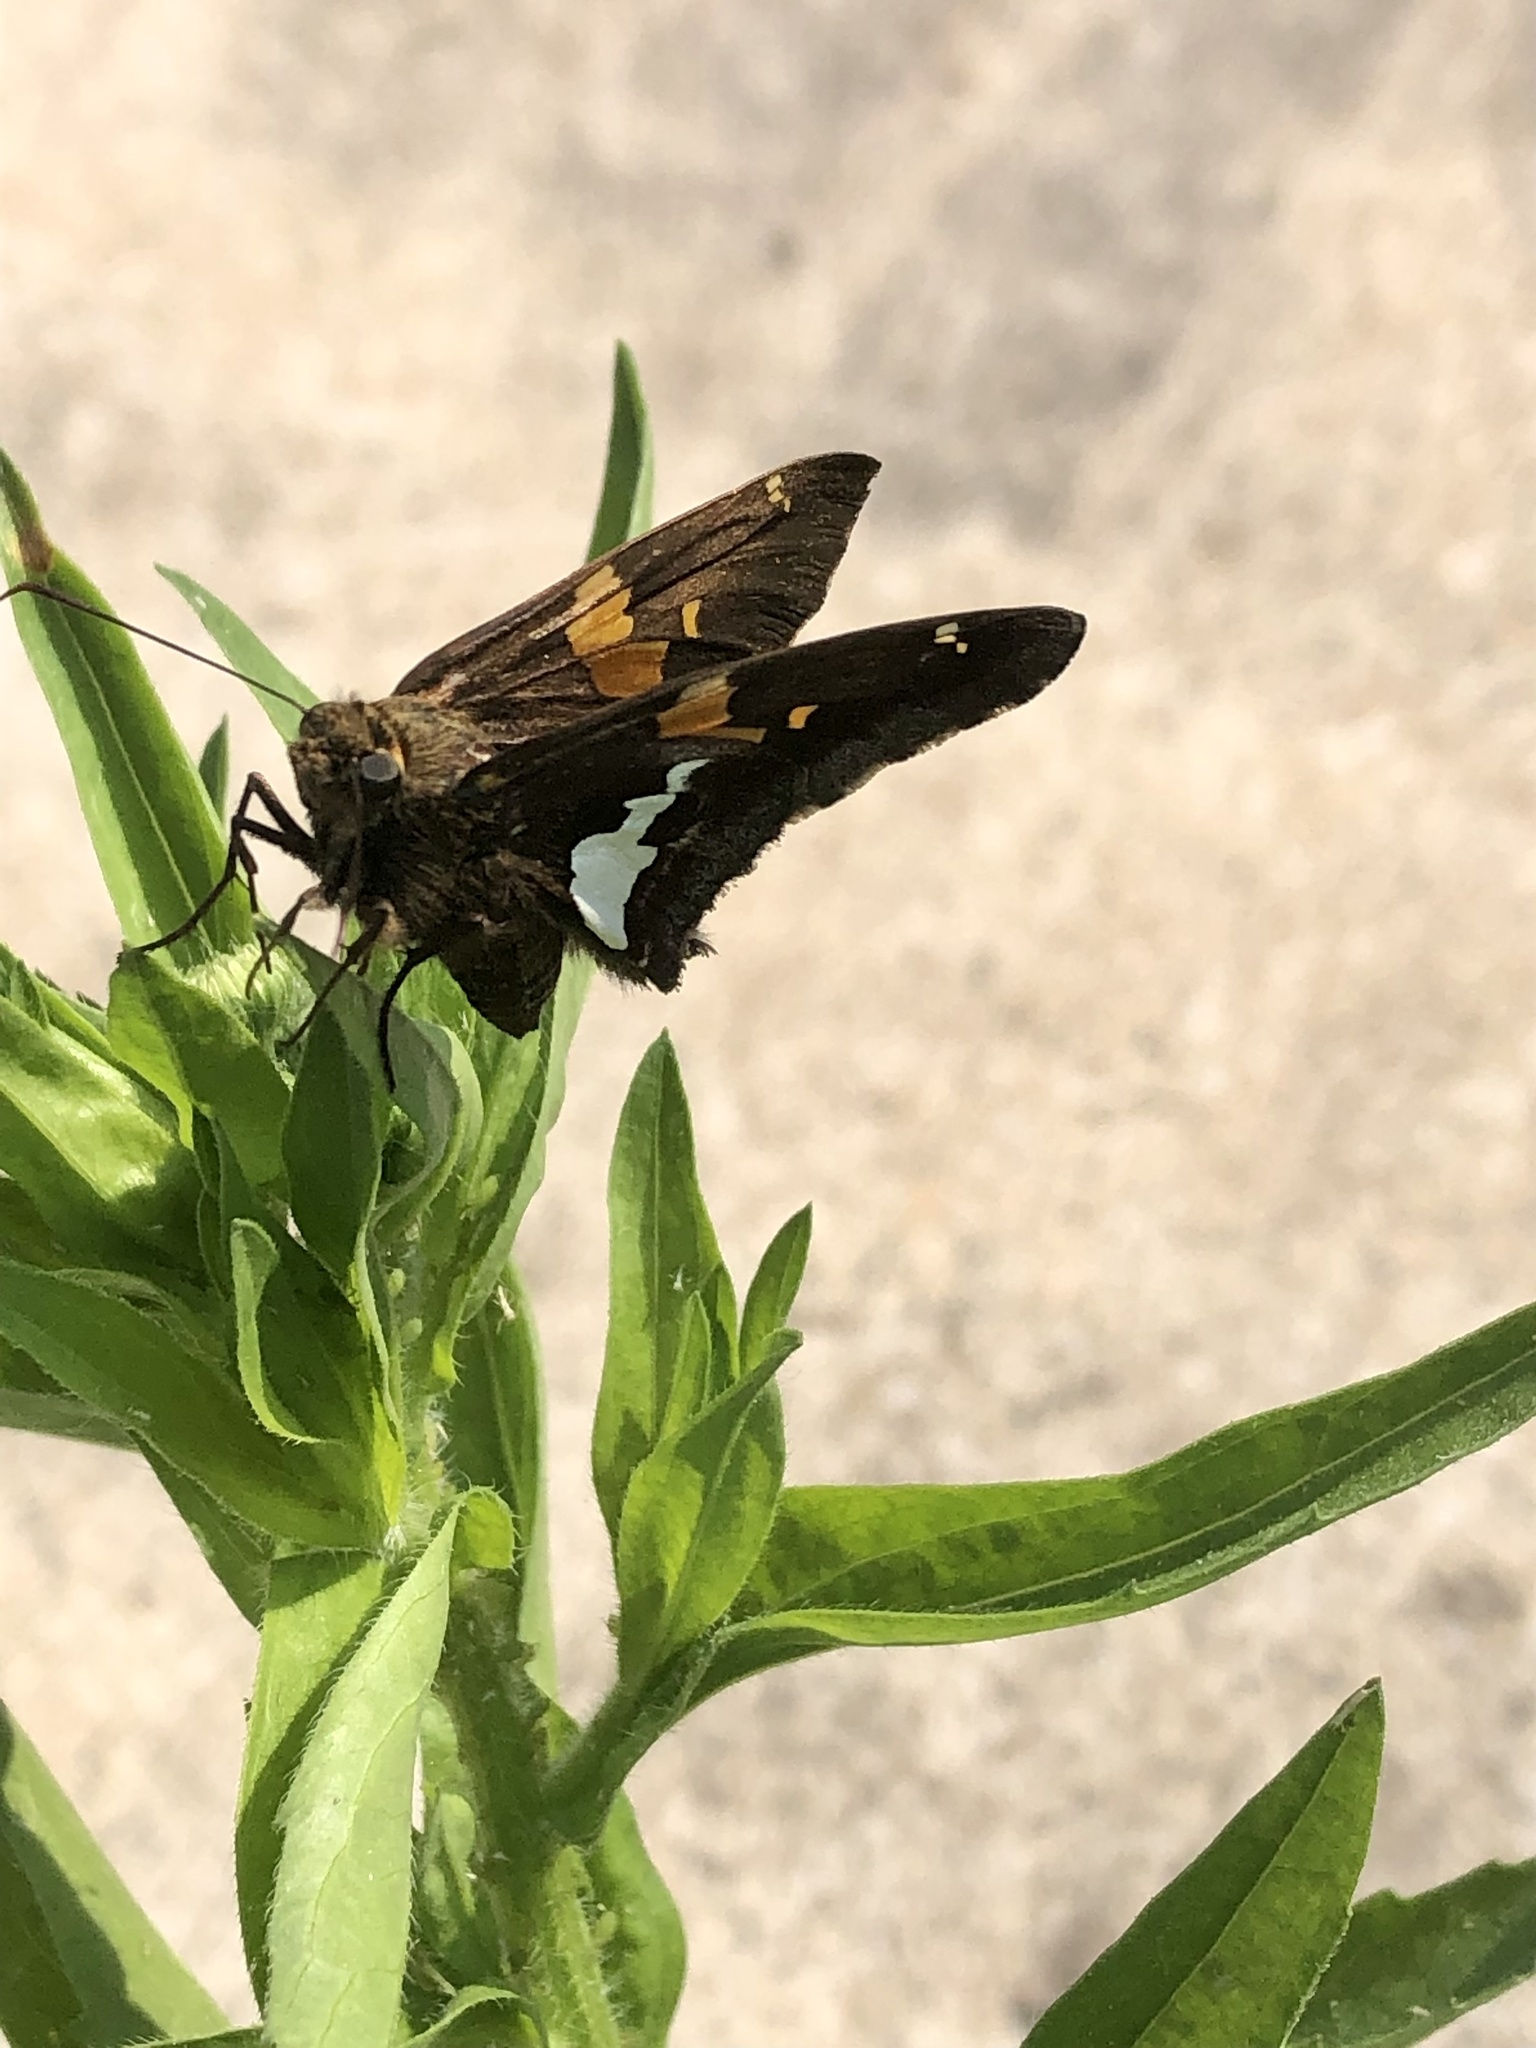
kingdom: Animalia
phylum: Arthropoda
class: Insecta
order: Lepidoptera
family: Hesperiidae
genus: Epargyreus
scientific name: Epargyreus clarus
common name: Silver-spotted skipper
